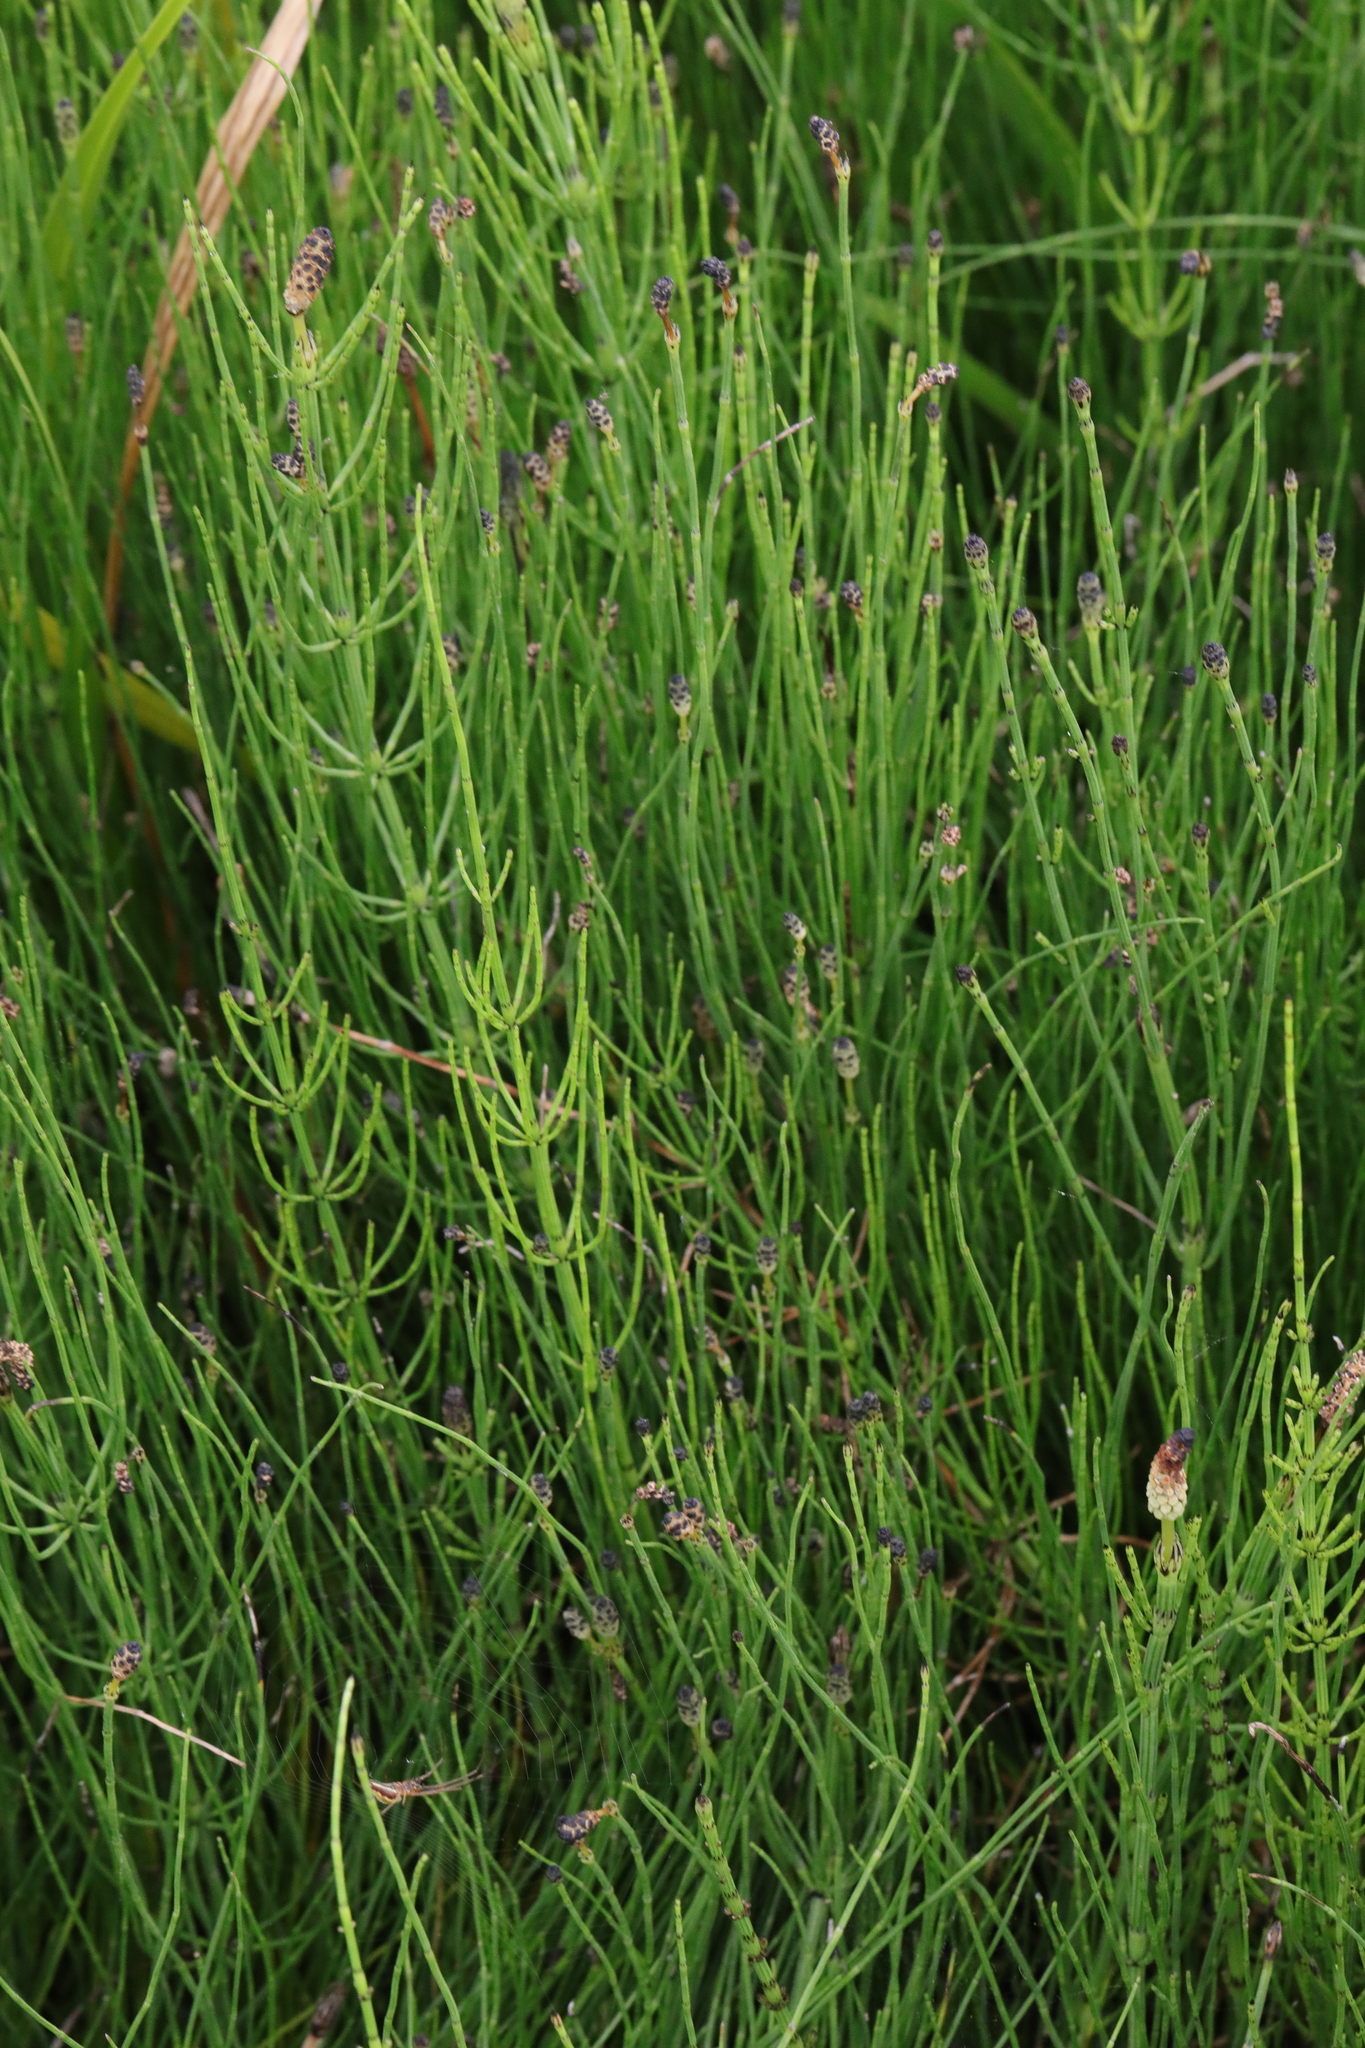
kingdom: Plantae
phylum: Tracheophyta
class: Polypodiopsida
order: Equisetales
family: Equisetaceae
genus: Equisetum
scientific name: Equisetum palustre
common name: Marsh horsetail
